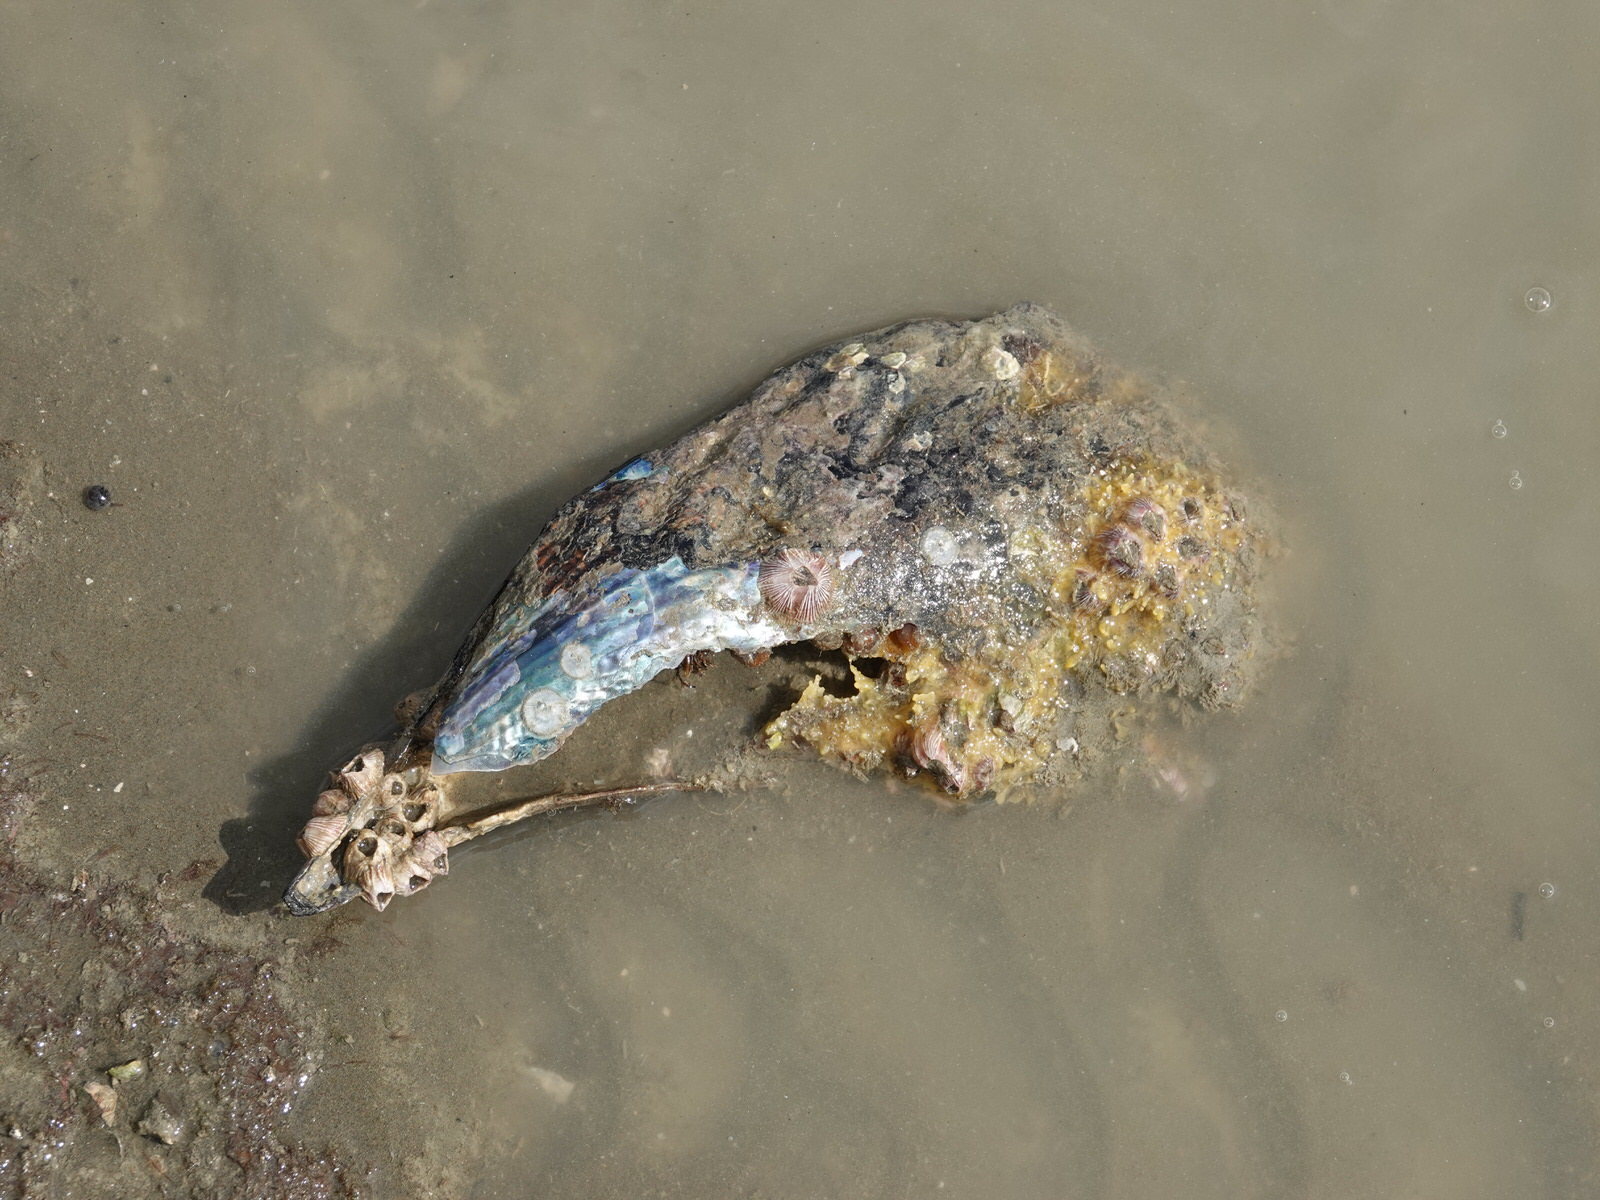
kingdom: Animalia
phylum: Mollusca
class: Bivalvia
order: Ostreida
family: Pinnidae
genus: Atrina
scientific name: Atrina zelandica
